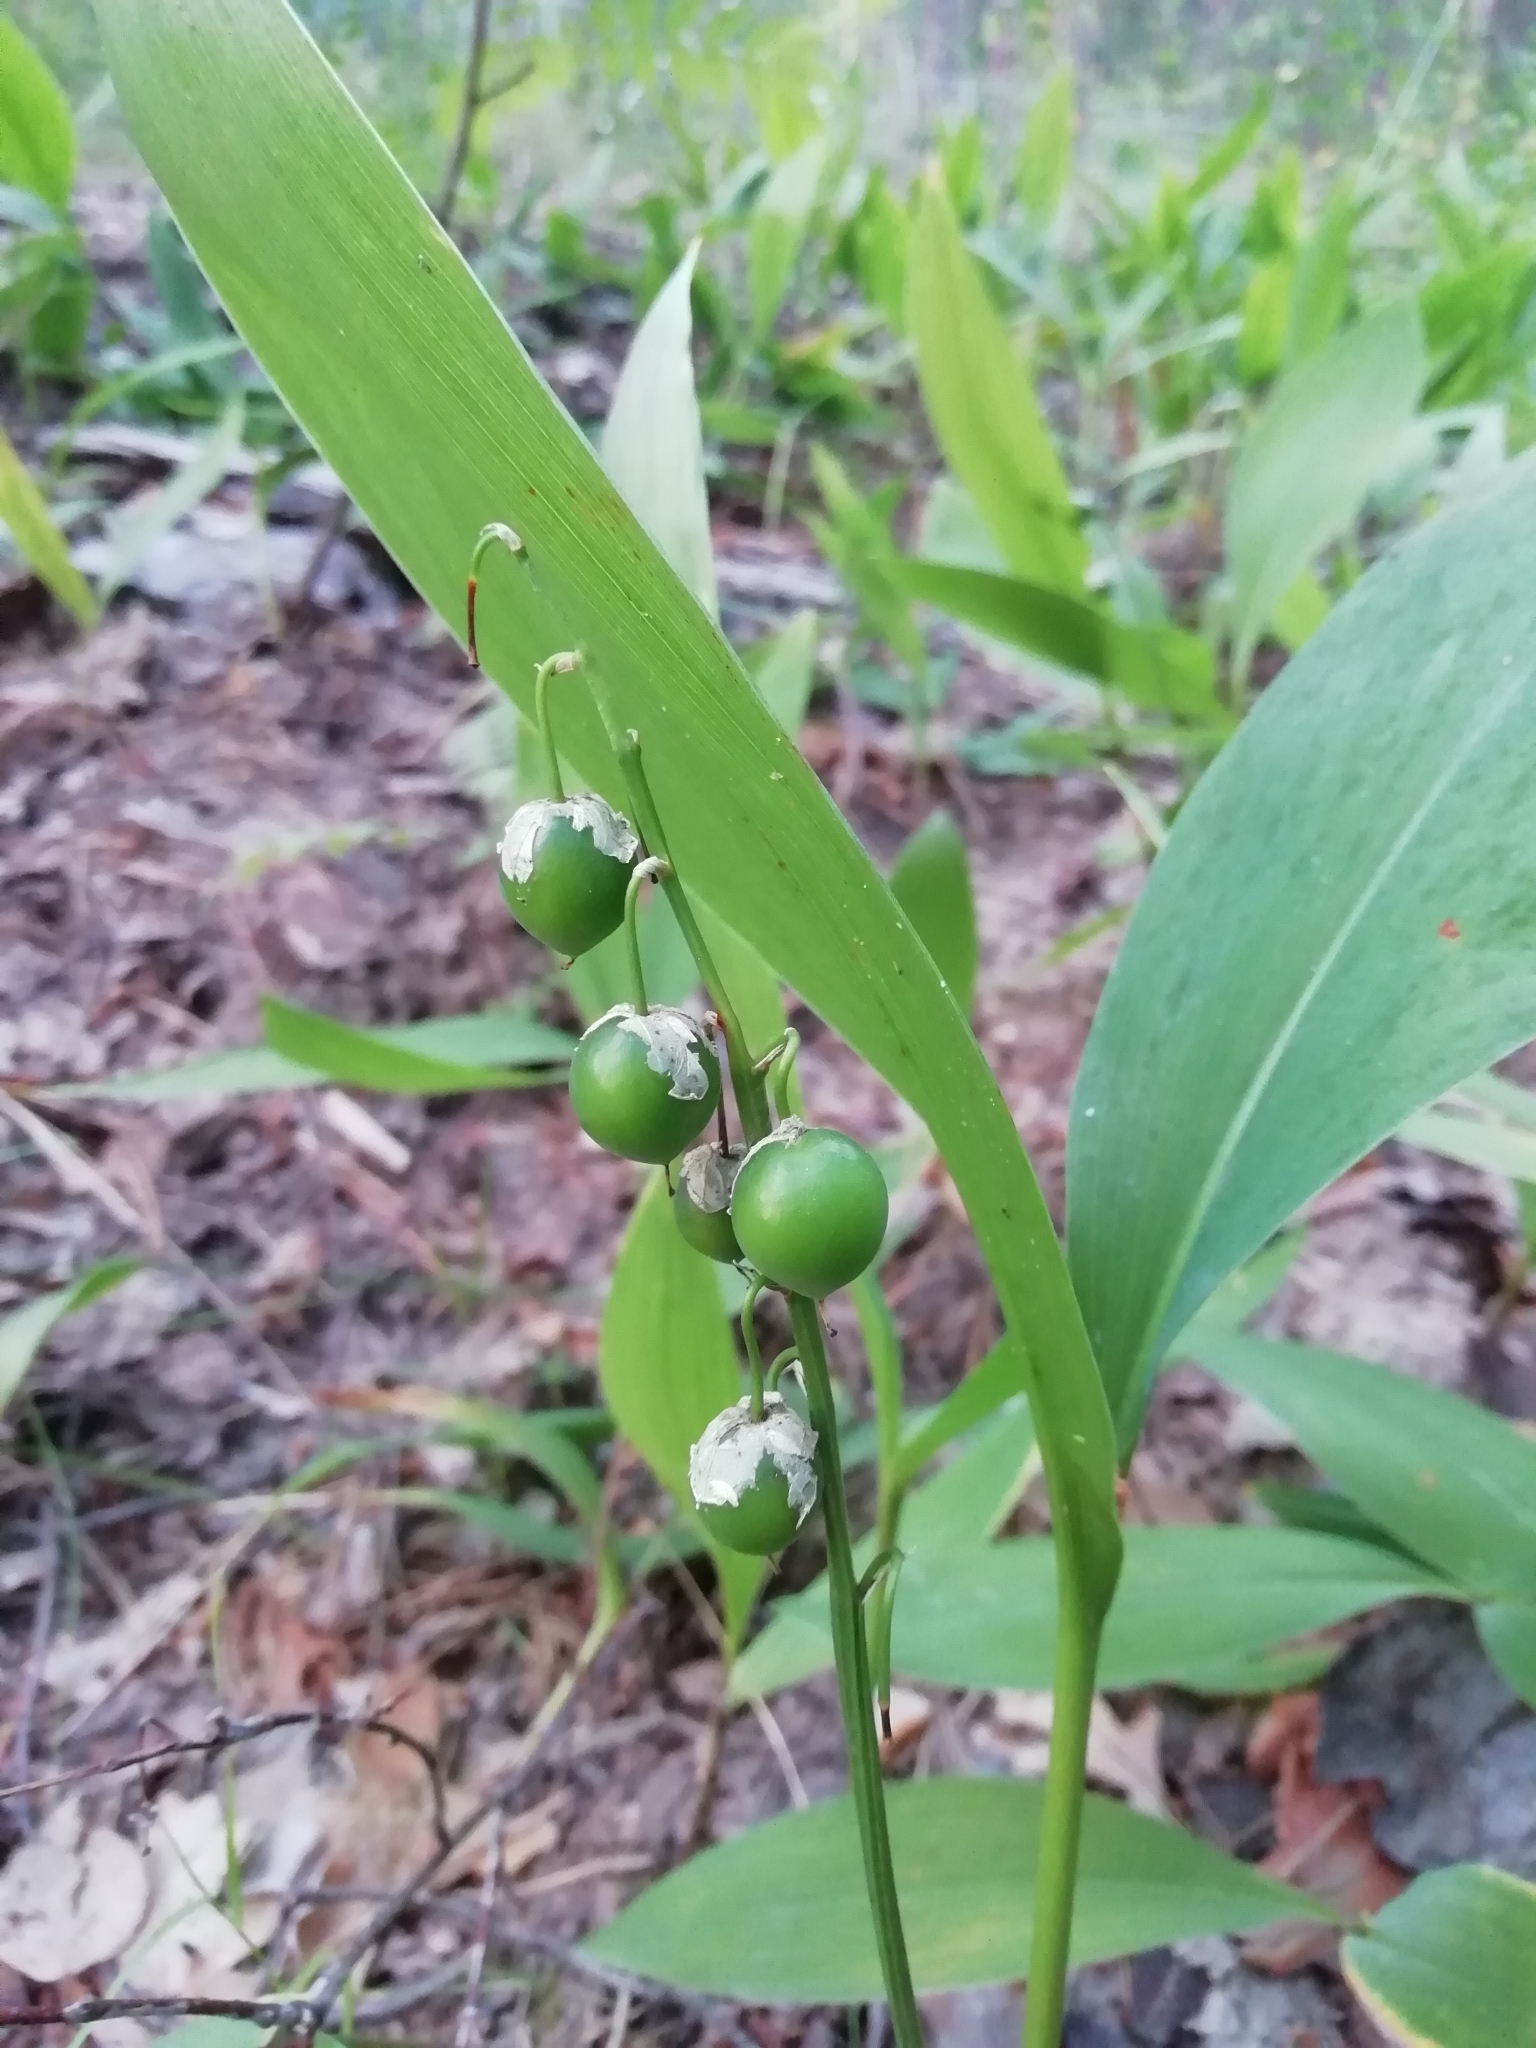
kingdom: Plantae
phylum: Tracheophyta
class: Liliopsida
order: Asparagales
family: Asparagaceae
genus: Convallaria
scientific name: Convallaria majalis
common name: Lily-of-the-valley
